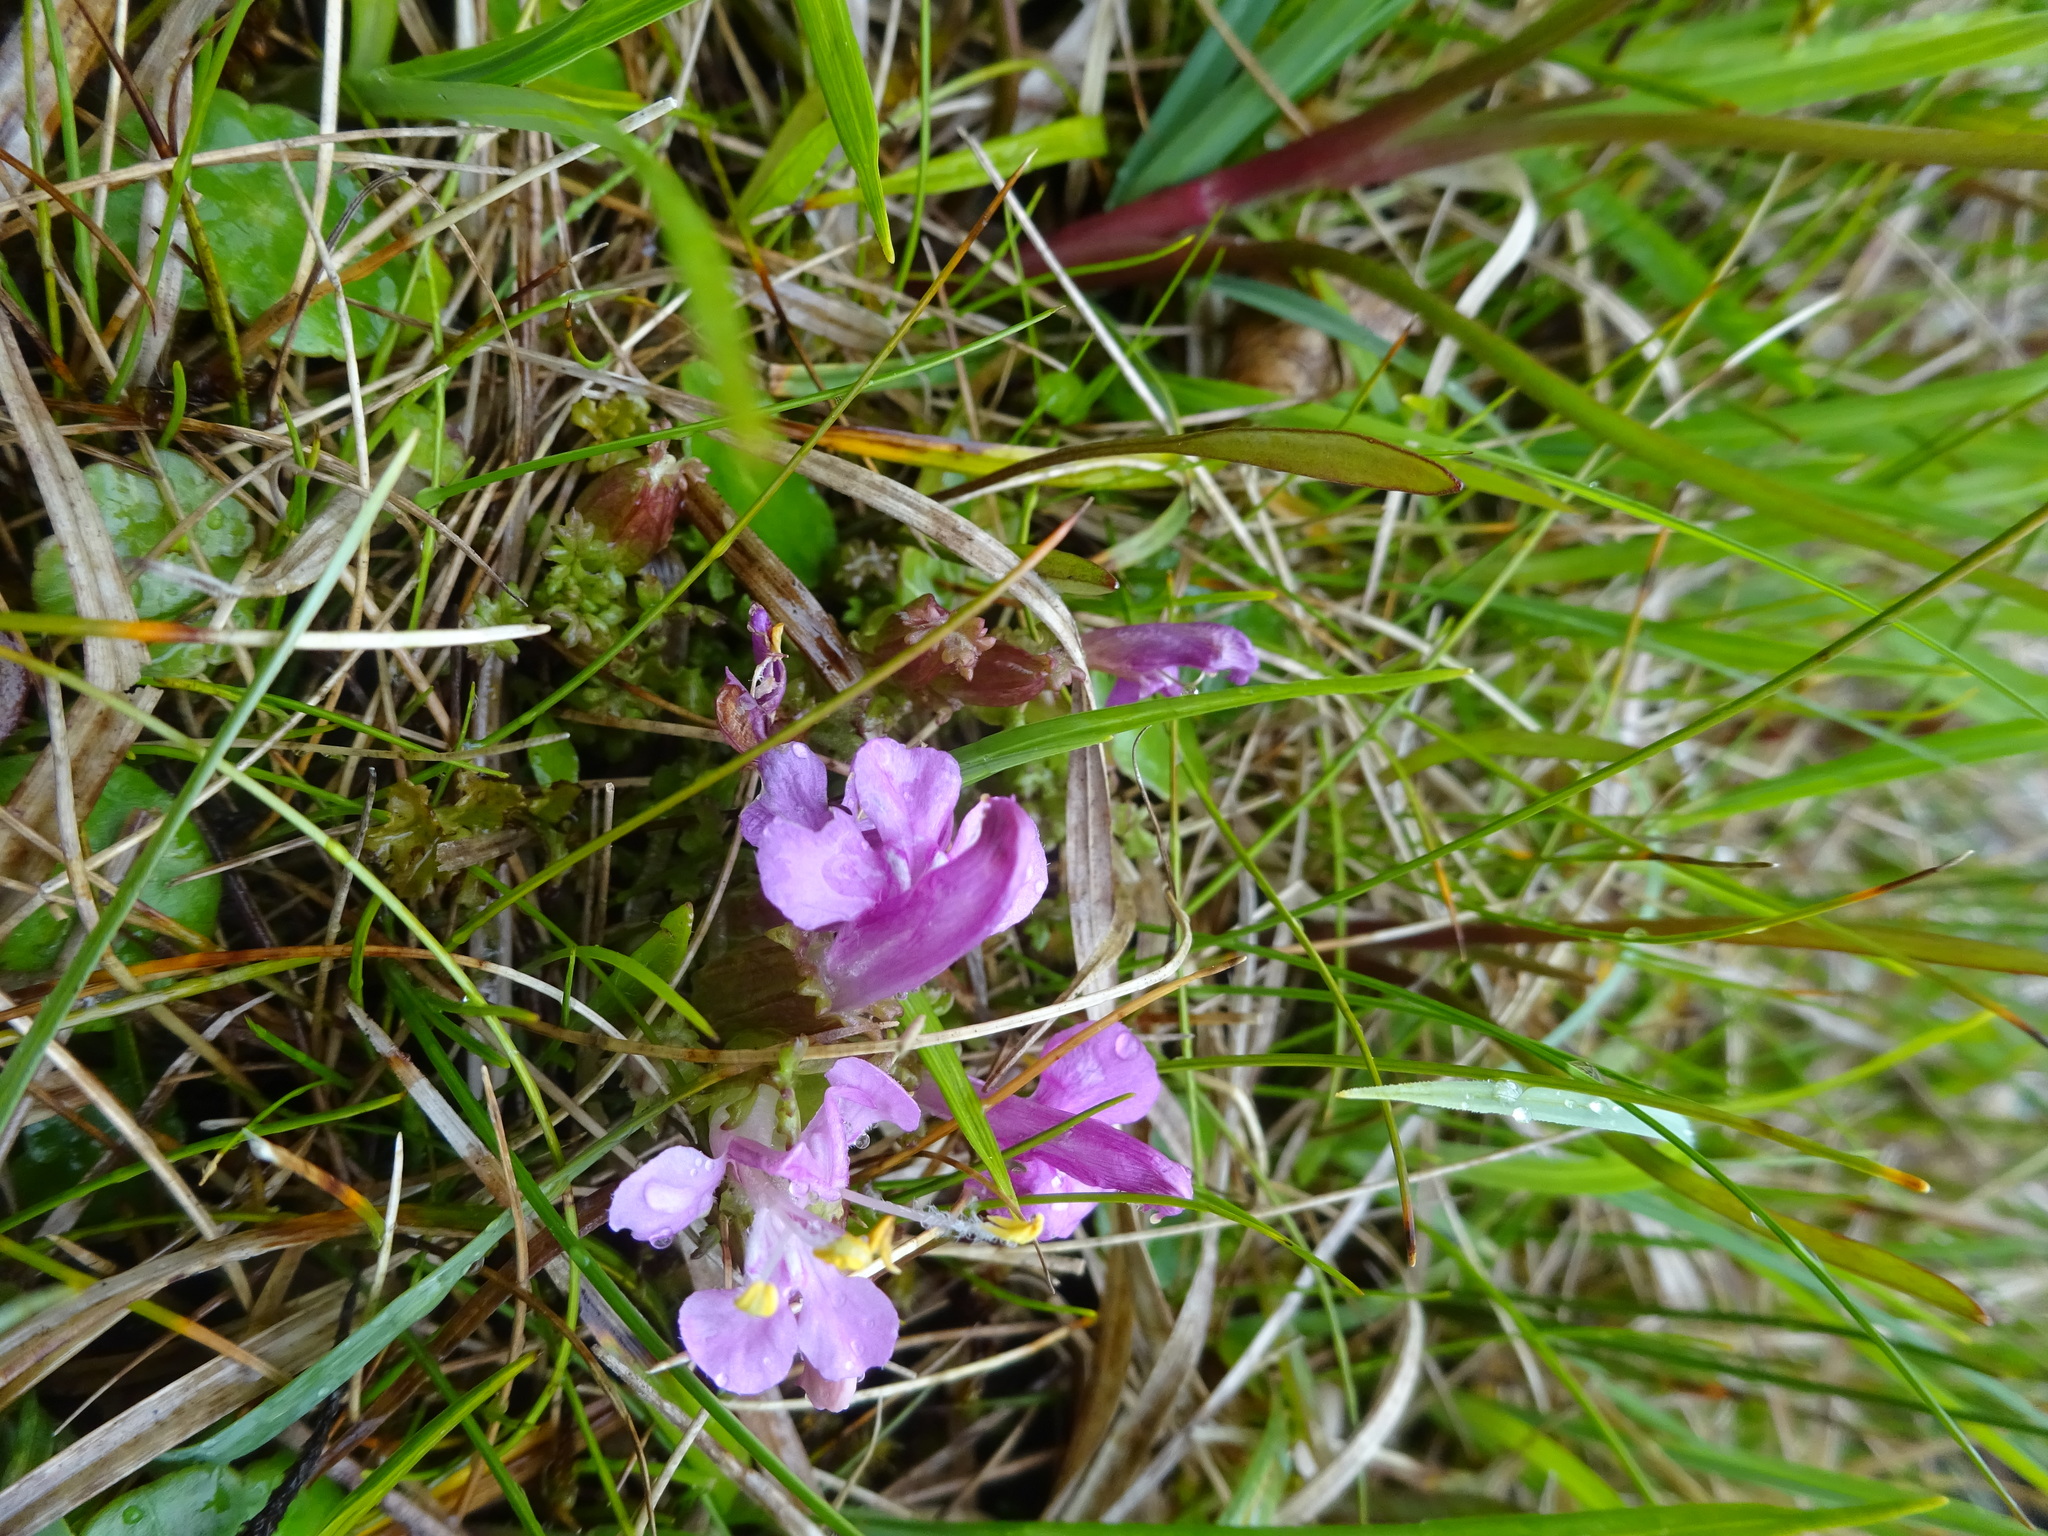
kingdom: Plantae
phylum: Tracheophyta
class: Magnoliopsida
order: Lamiales
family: Orobanchaceae
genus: Pedicularis
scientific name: Pedicularis sylvatica
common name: Lousewort
